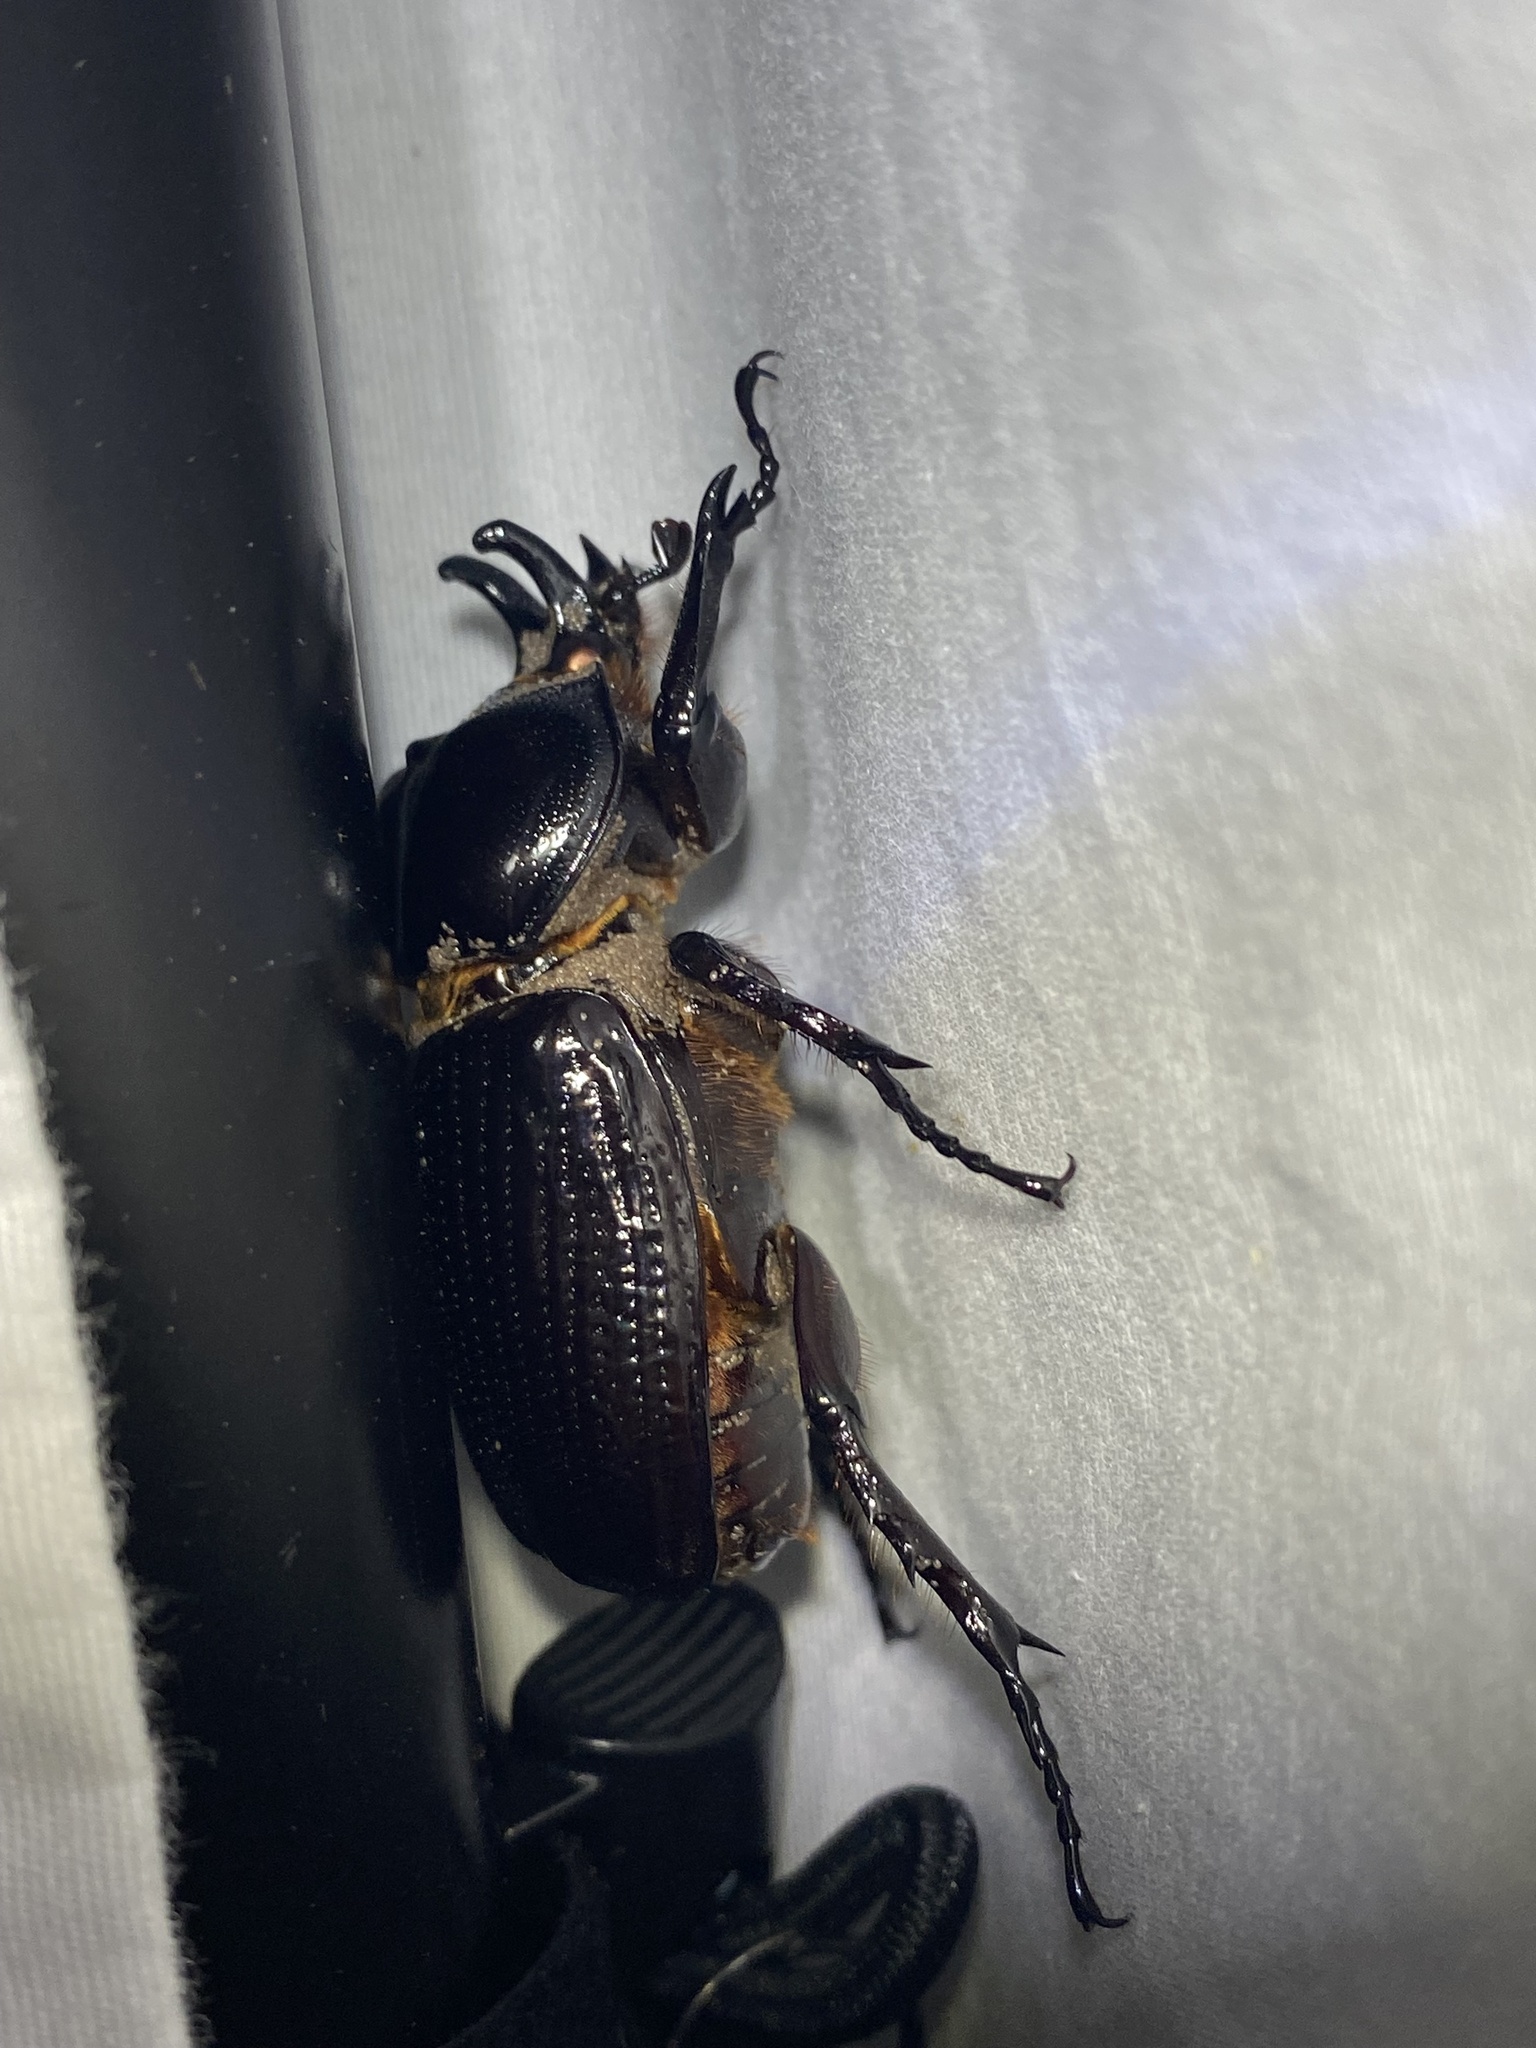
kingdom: Animalia
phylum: Arthropoda
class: Insecta
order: Coleoptera
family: Scarabaeidae
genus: Phileurus
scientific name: Phileurus truncatus
